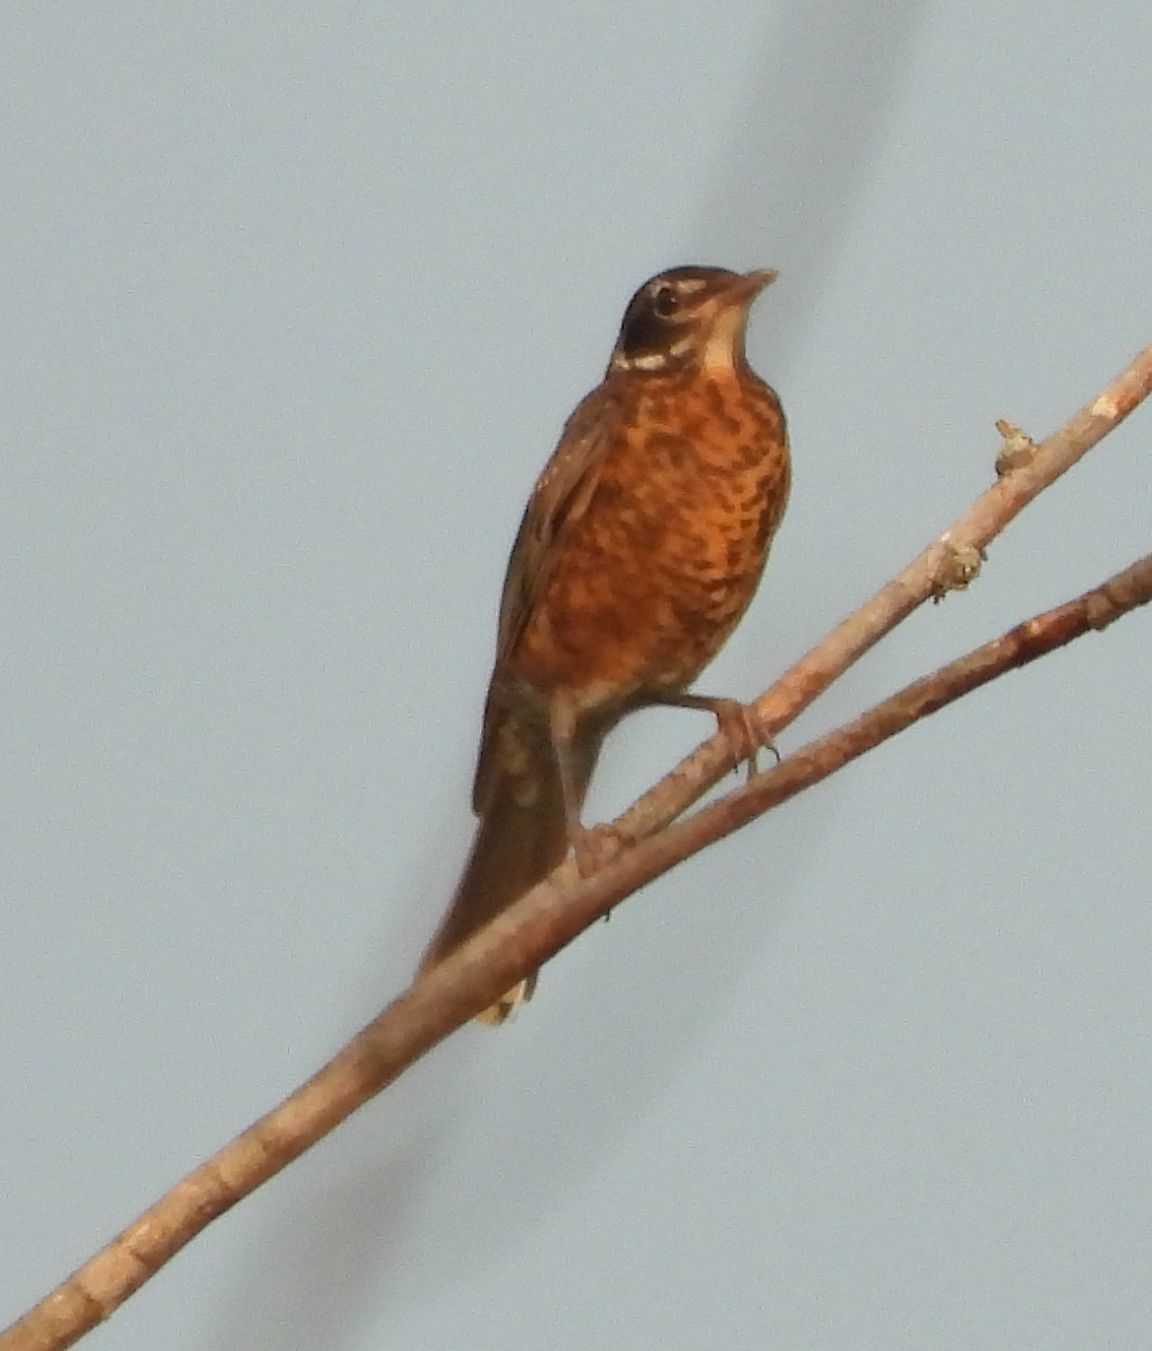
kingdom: Animalia
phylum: Chordata
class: Aves
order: Passeriformes
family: Turdidae
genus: Turdus
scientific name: Turdus migratorius
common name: American robin
